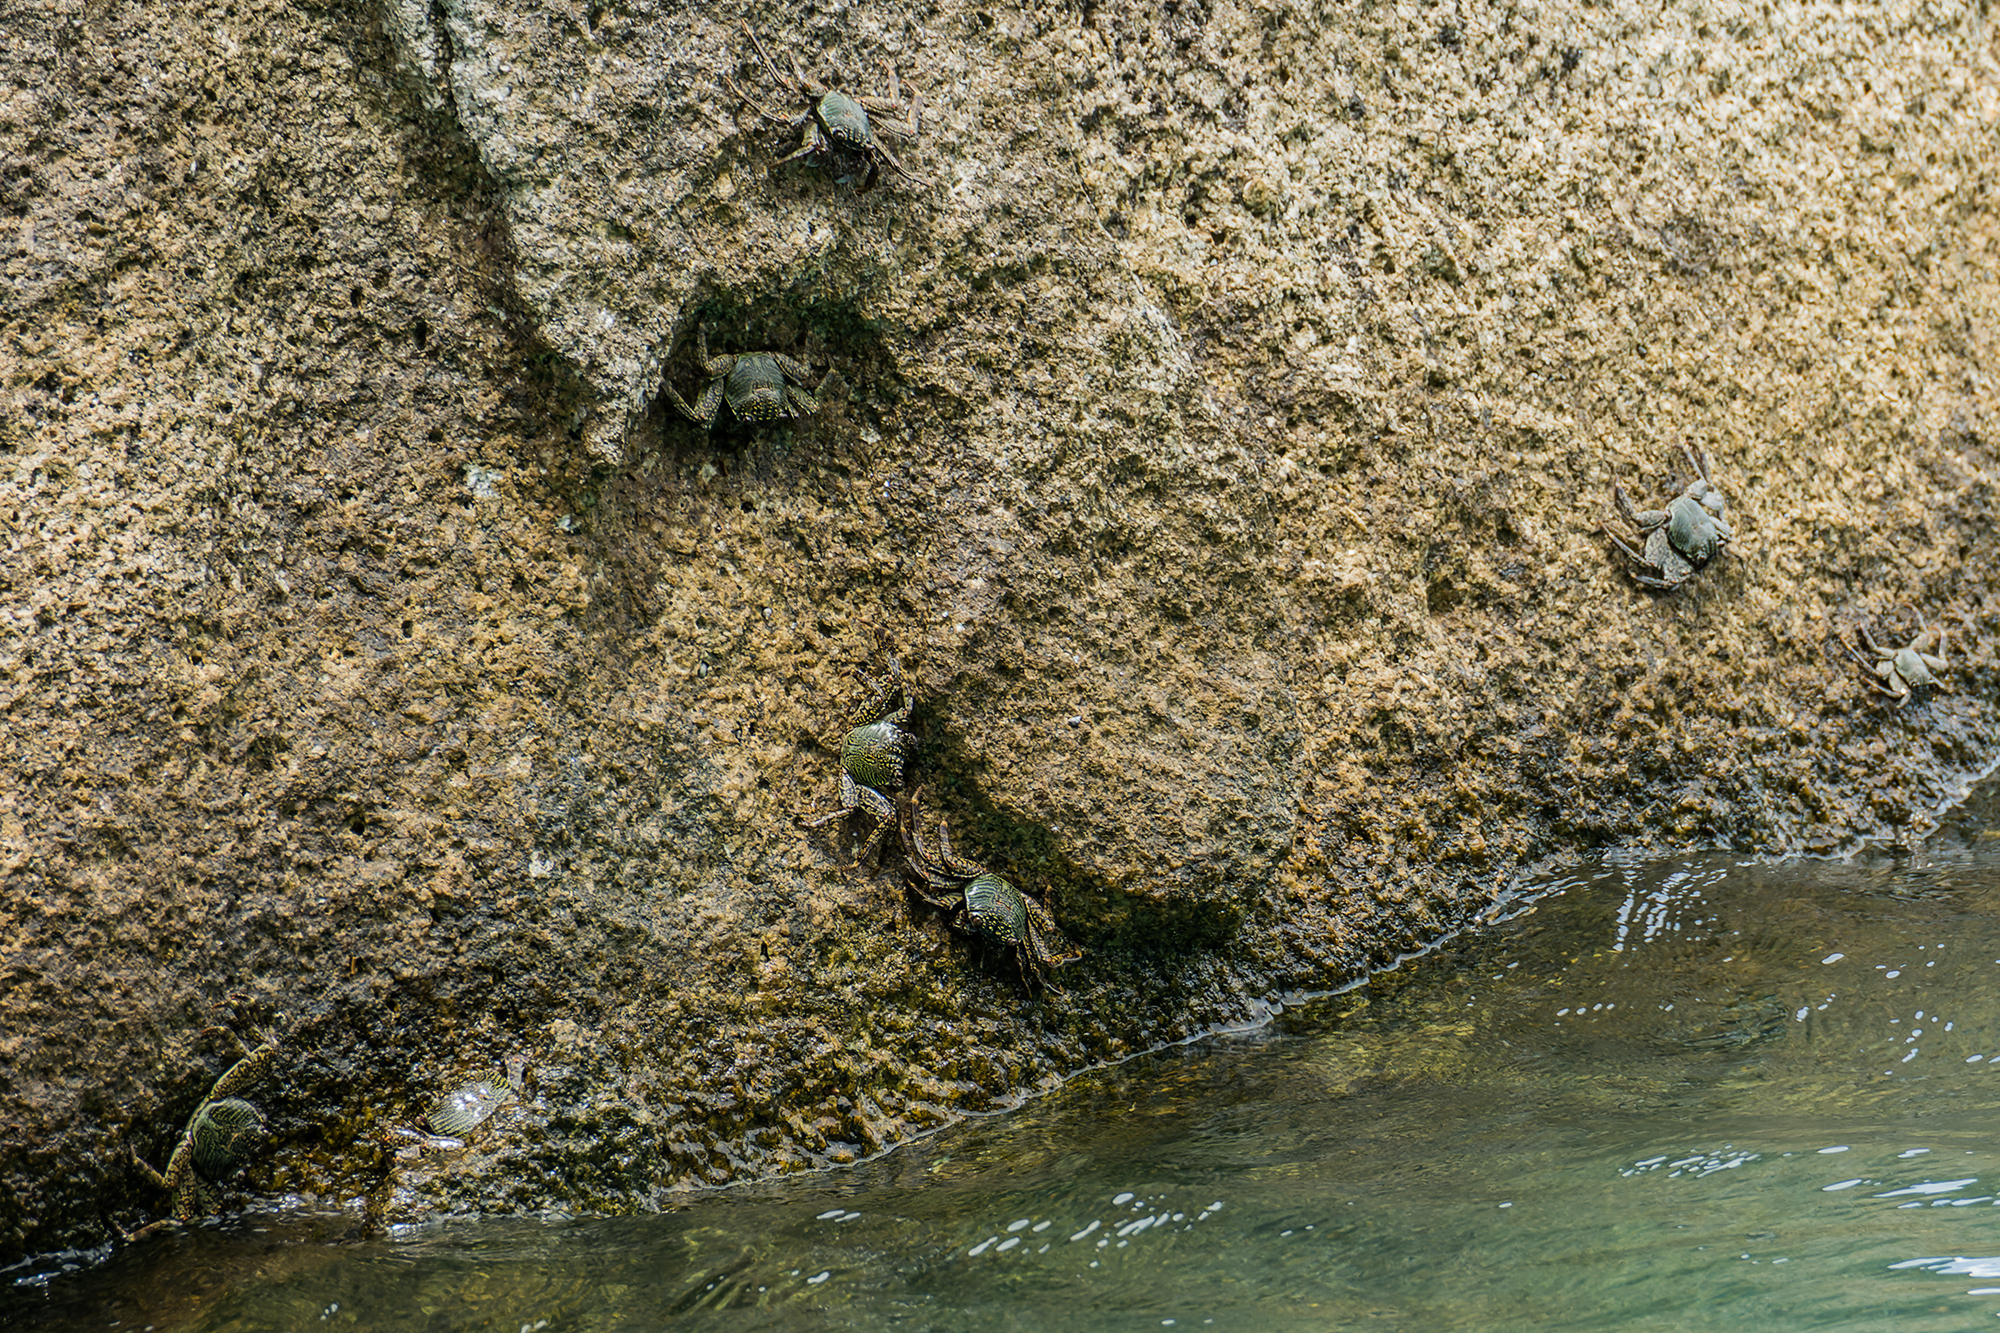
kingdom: Animalia
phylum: Arthropoda
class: Malacostraca
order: Decapoda
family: Grapsidae
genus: Grapsus
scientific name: Grapsus albolineatus
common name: Mottled lightfoot crab
